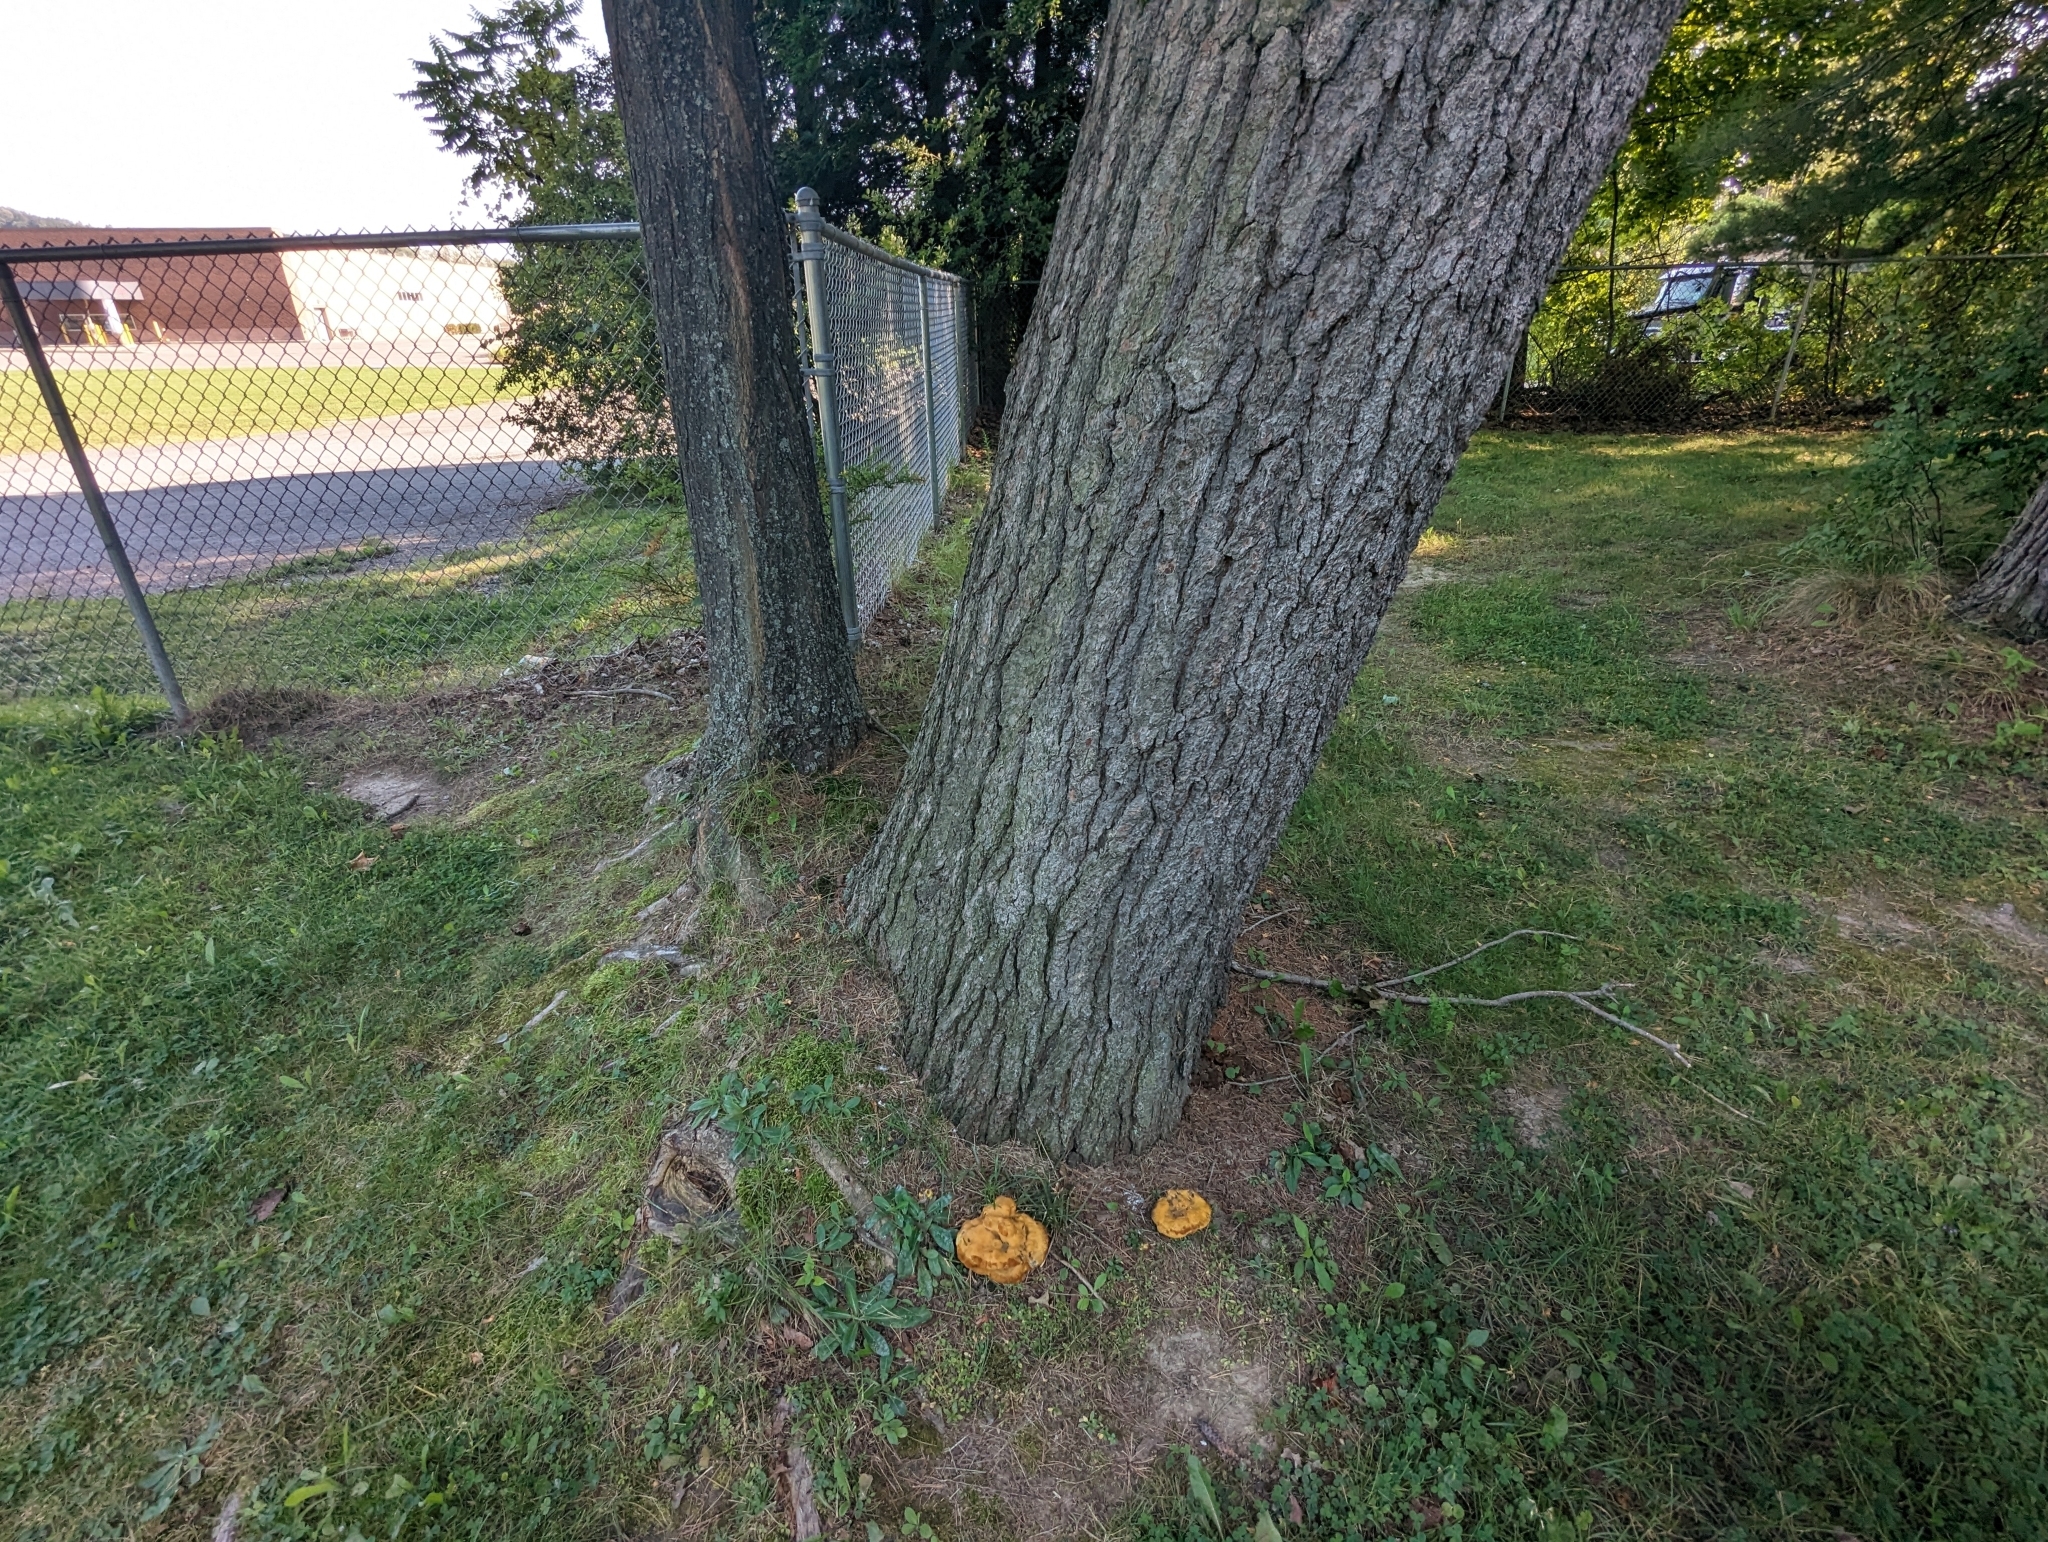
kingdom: Fungi
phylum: Basidiomycota
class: Agaricomycetes
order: Polyporales
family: Laetiporaceae
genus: Phaeolus
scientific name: Phaeolus schweinitzii
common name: Dyer's mazegill
